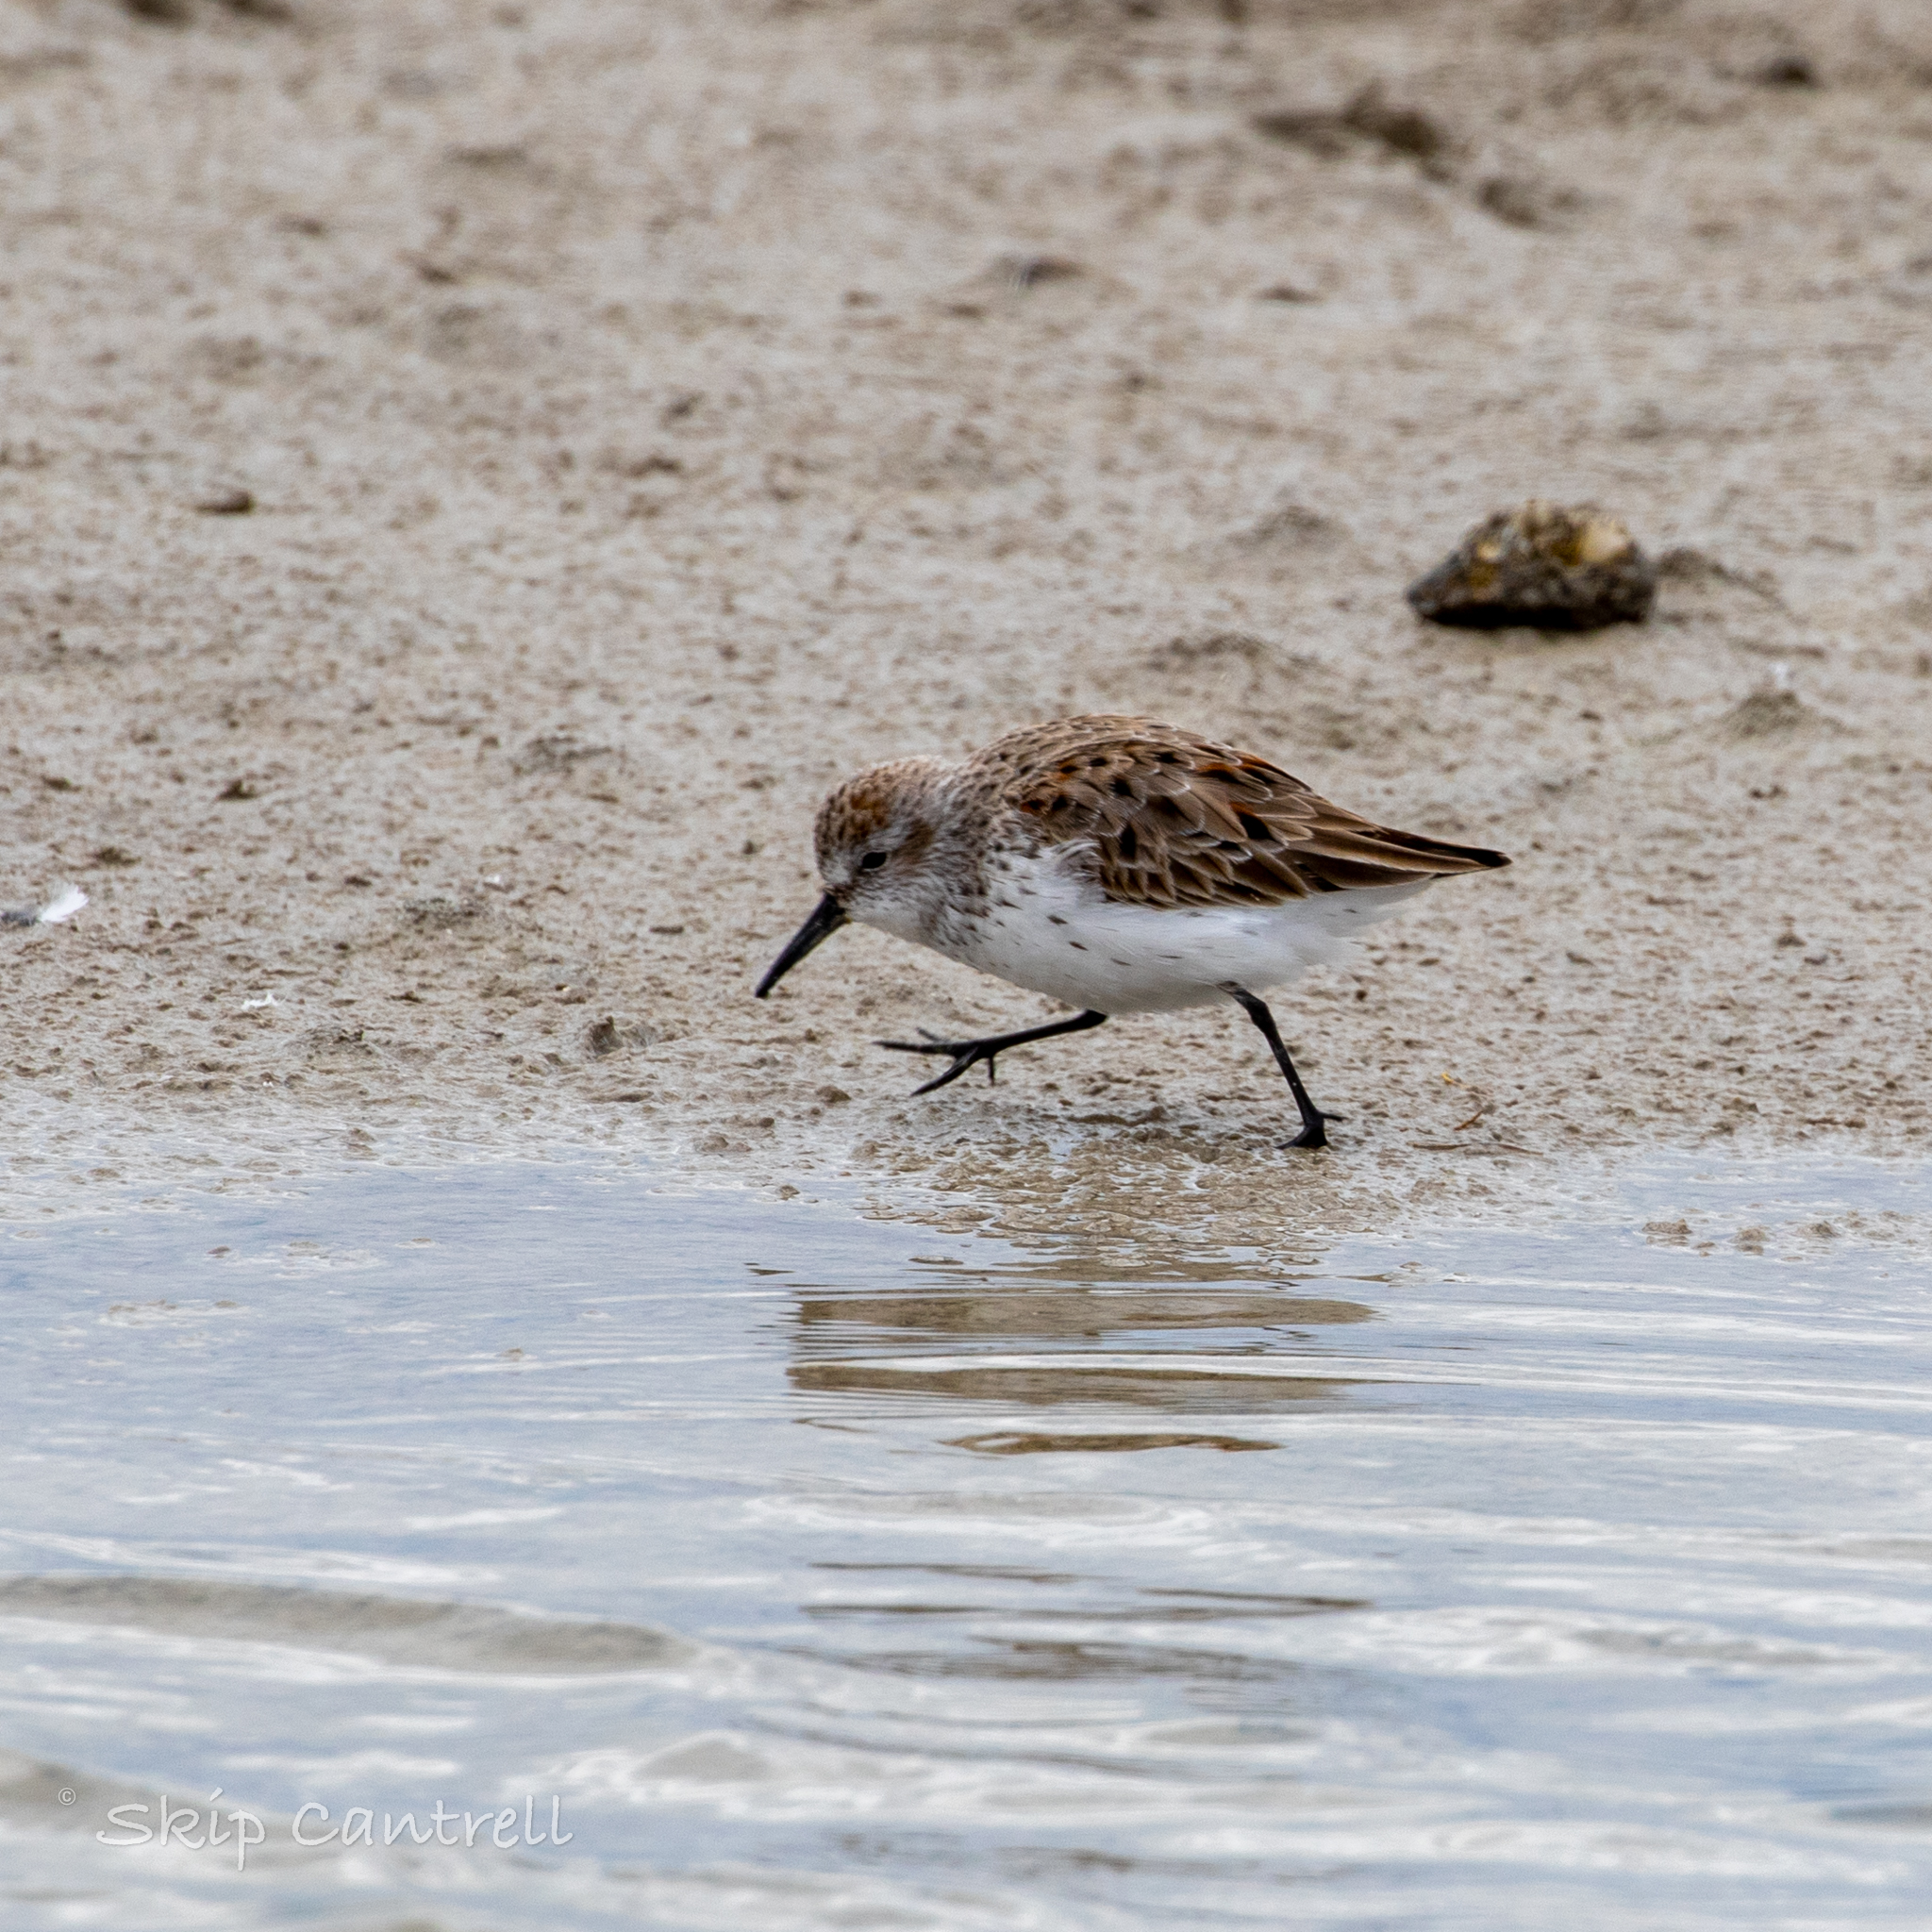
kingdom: Animalia
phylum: Chordata
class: Aves
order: Charadriiformes
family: Scolopacidae
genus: Calidris
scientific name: Calidris pusilla
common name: Semipalmated sandpiper
